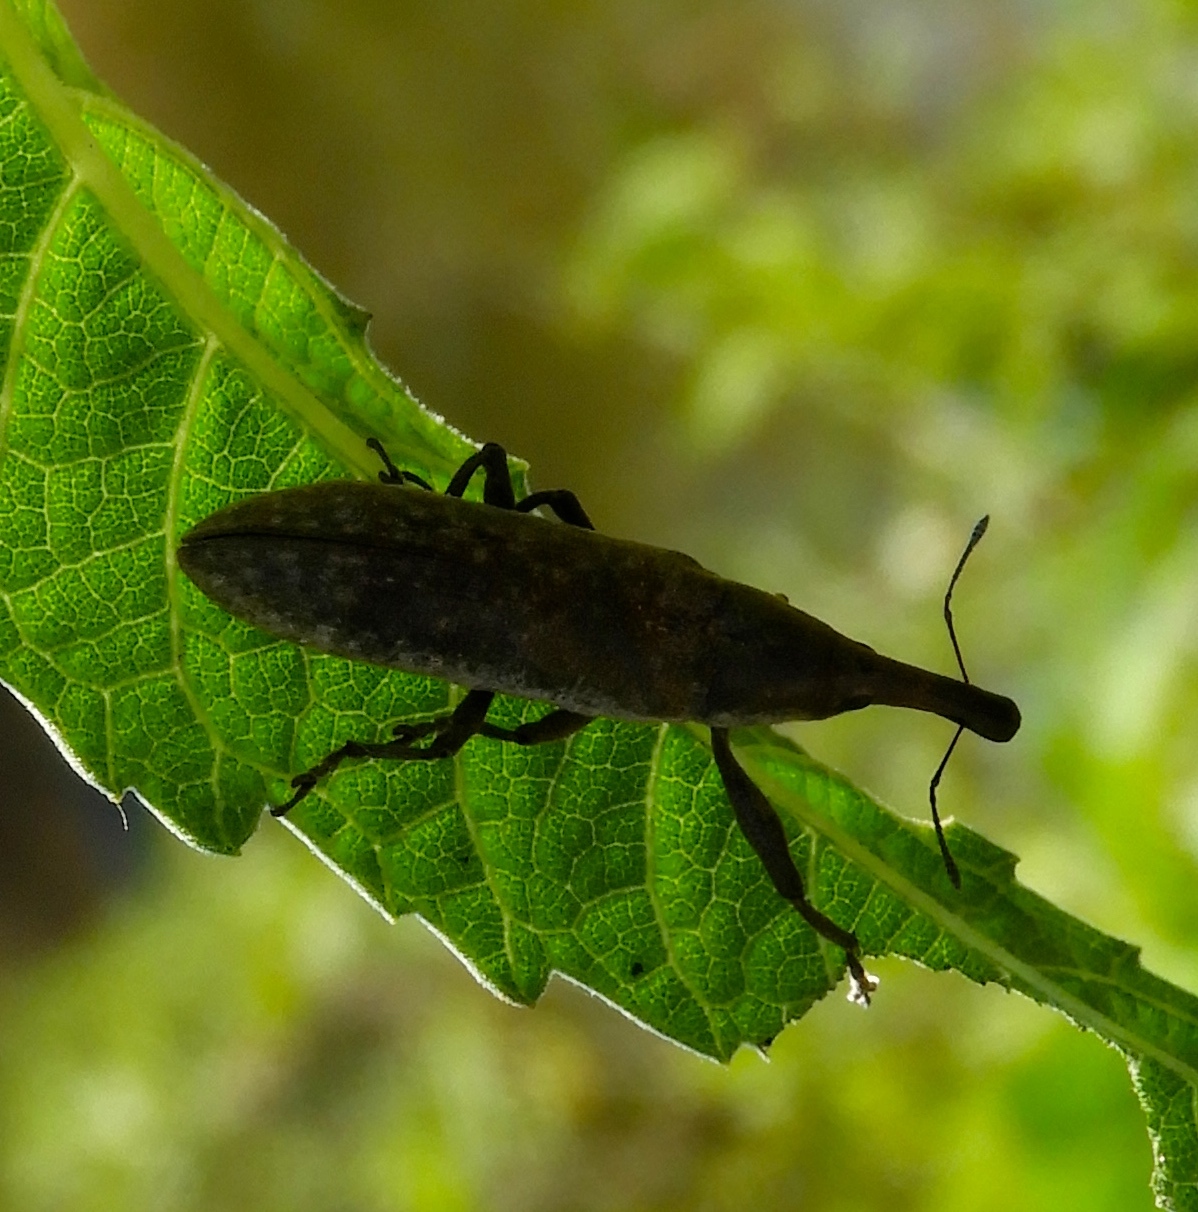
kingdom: Animalia
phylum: Arthropoda
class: Insecta
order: Coleoptera
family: Curculionidae
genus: Lixus
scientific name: Lixus
